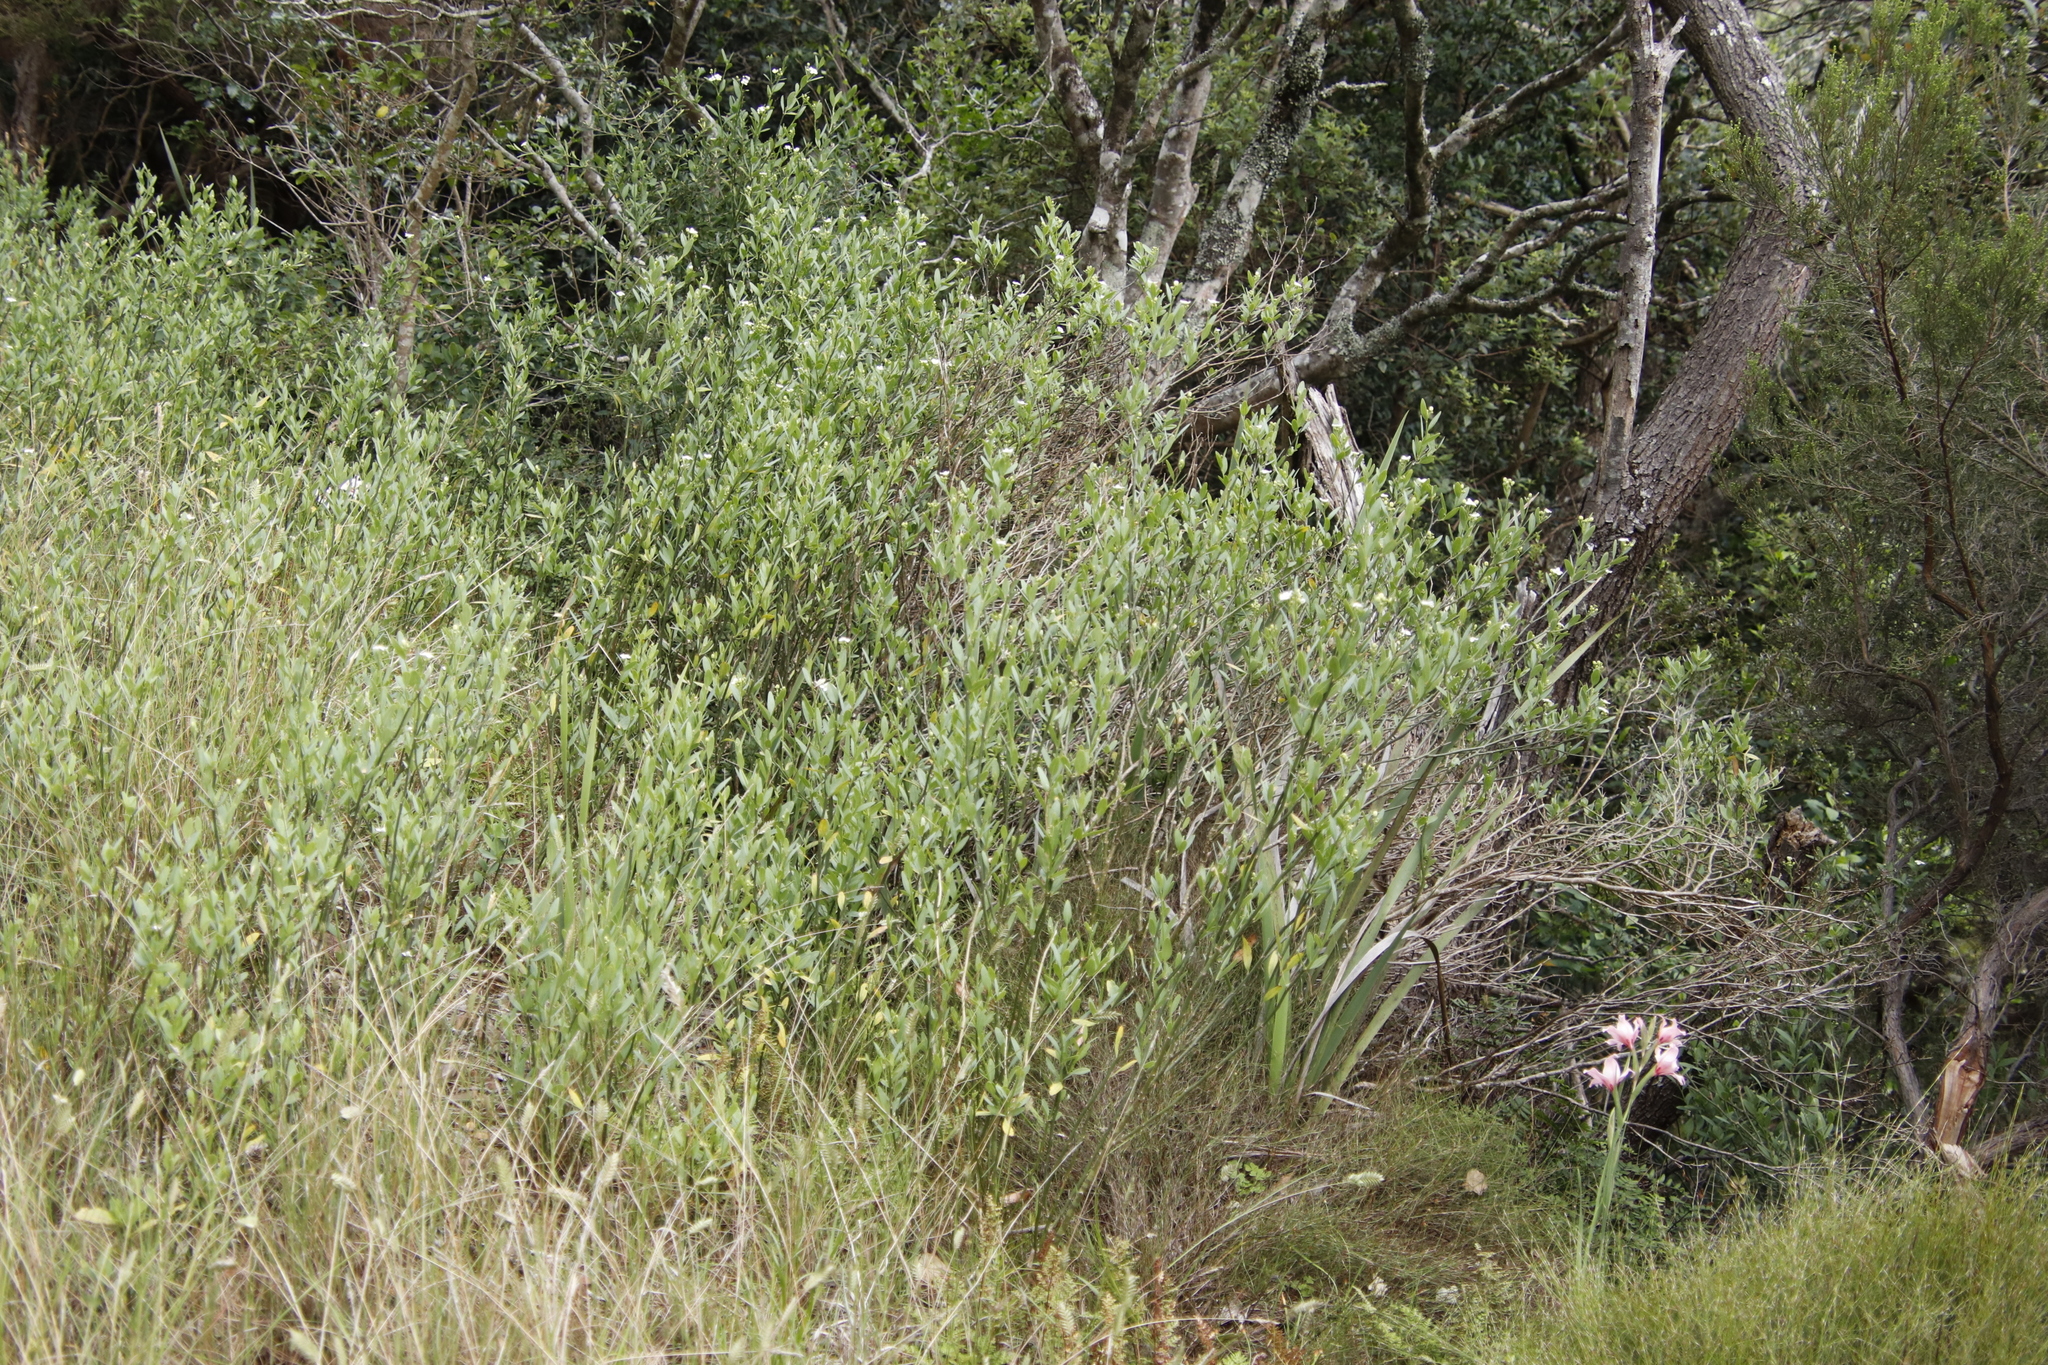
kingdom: Plantae
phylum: Tracheophyta
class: Magnoliopsida
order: Solanales
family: Montiniaceae
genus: Montinia
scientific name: Montinia caryophyllacea
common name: Wild clove-bush
